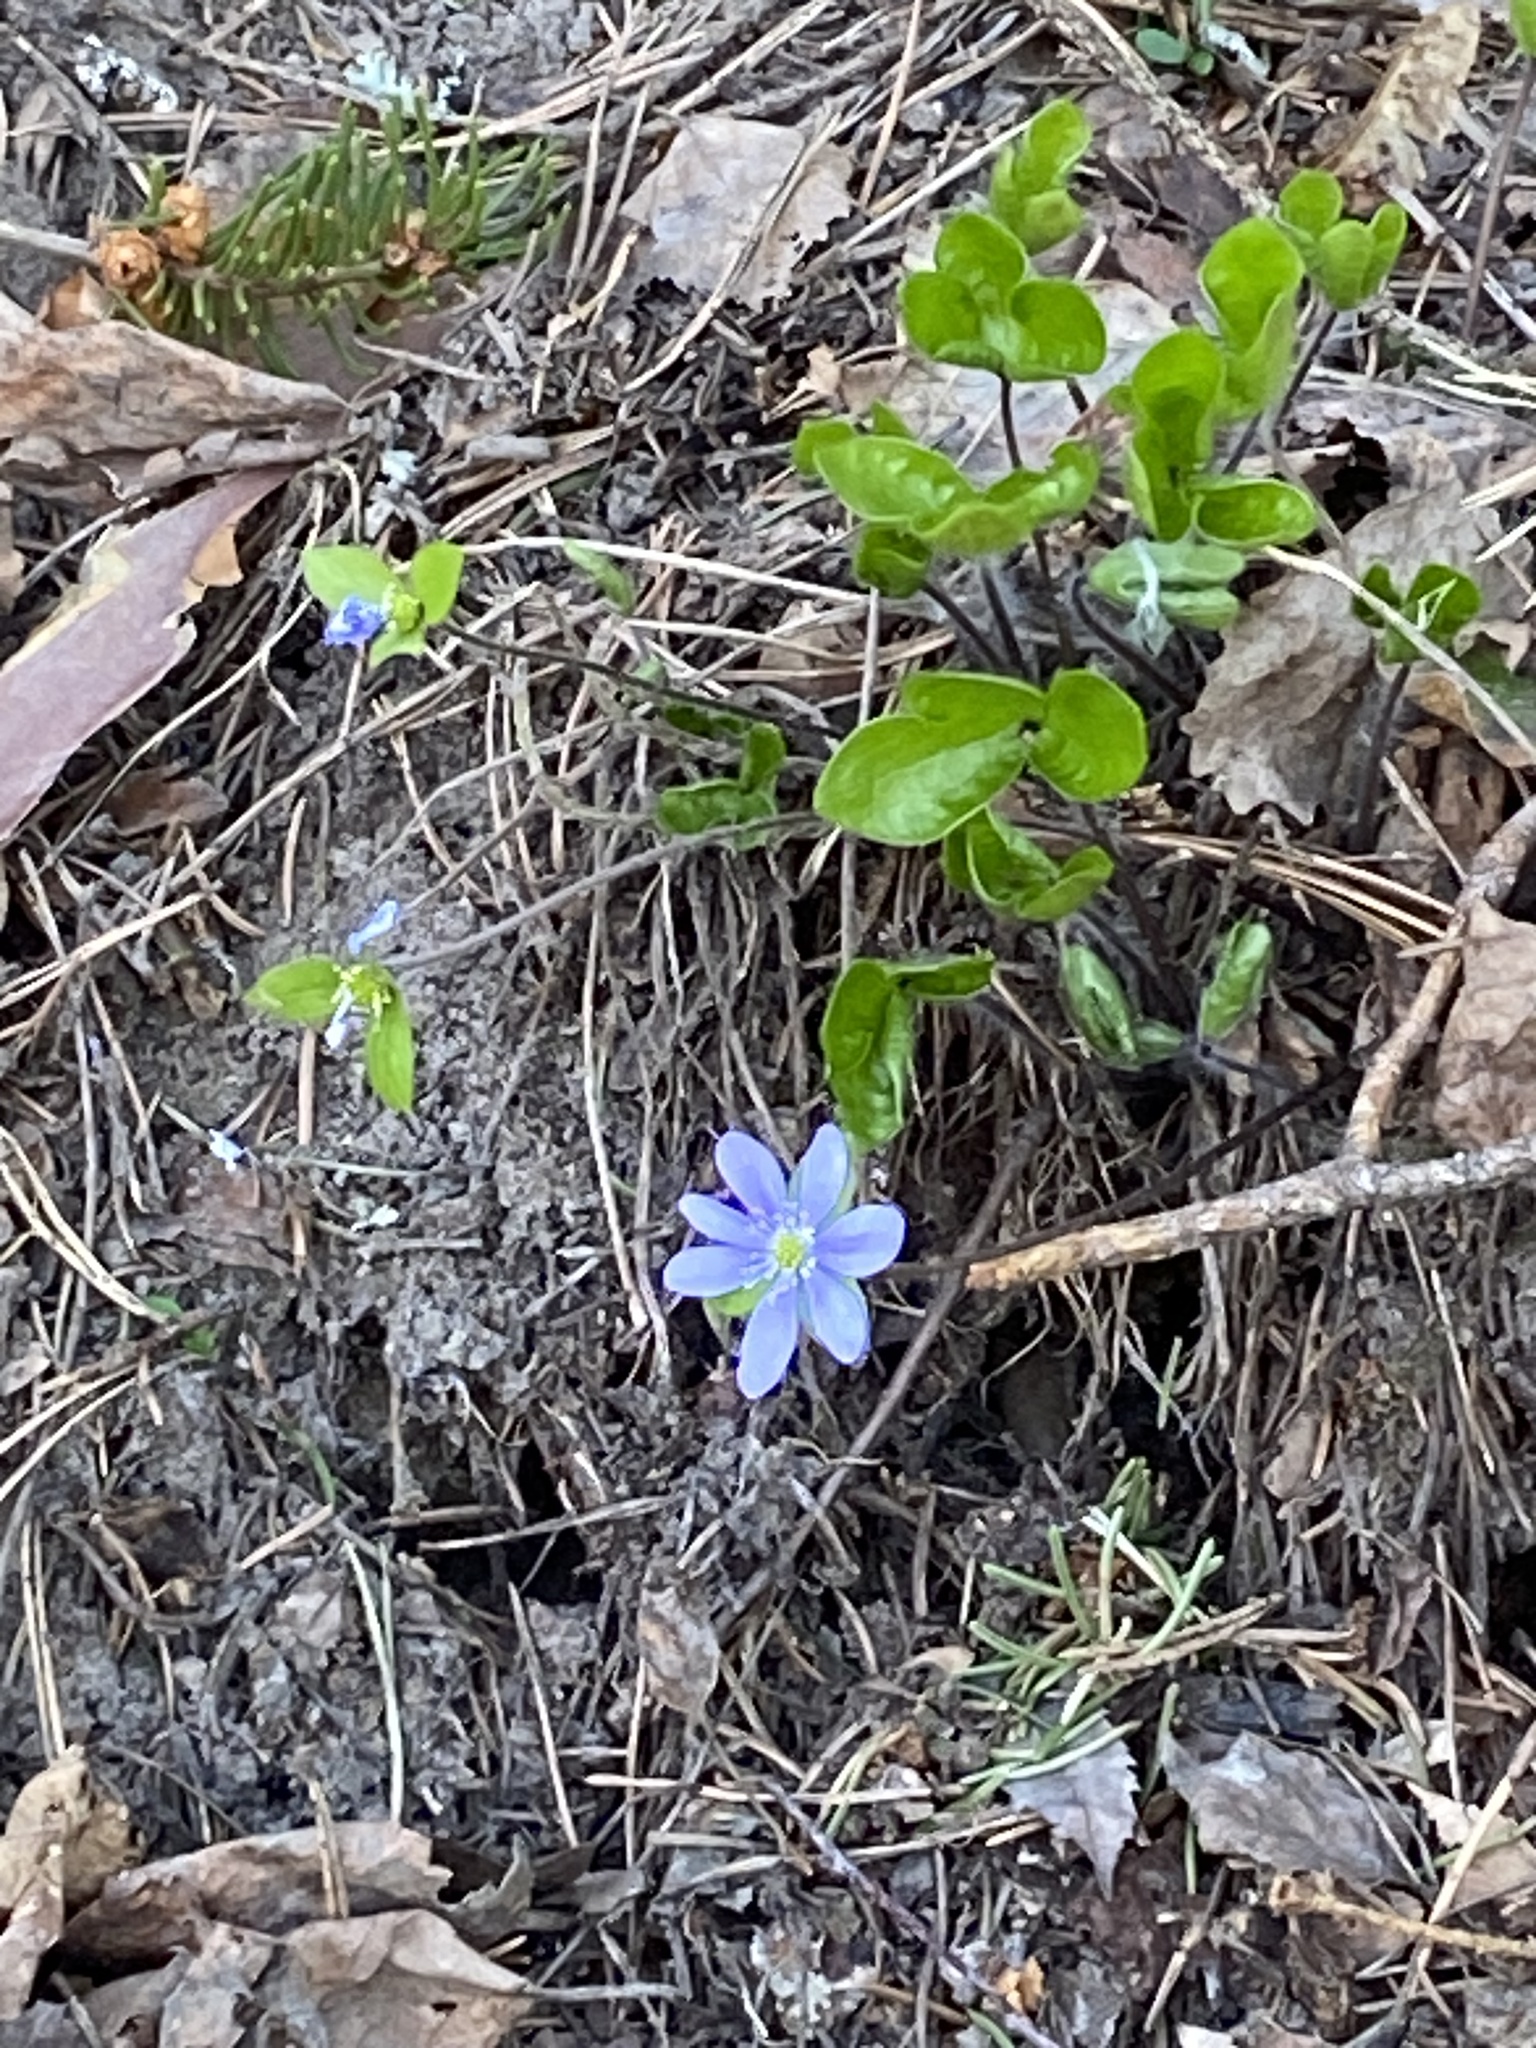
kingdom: Plantae
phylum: Tracheophyta
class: Magnoliopsida
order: Ranunculales
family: Ranunculaceae
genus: Hepatica
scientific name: Hepatica nobilis
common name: Liverleaf
